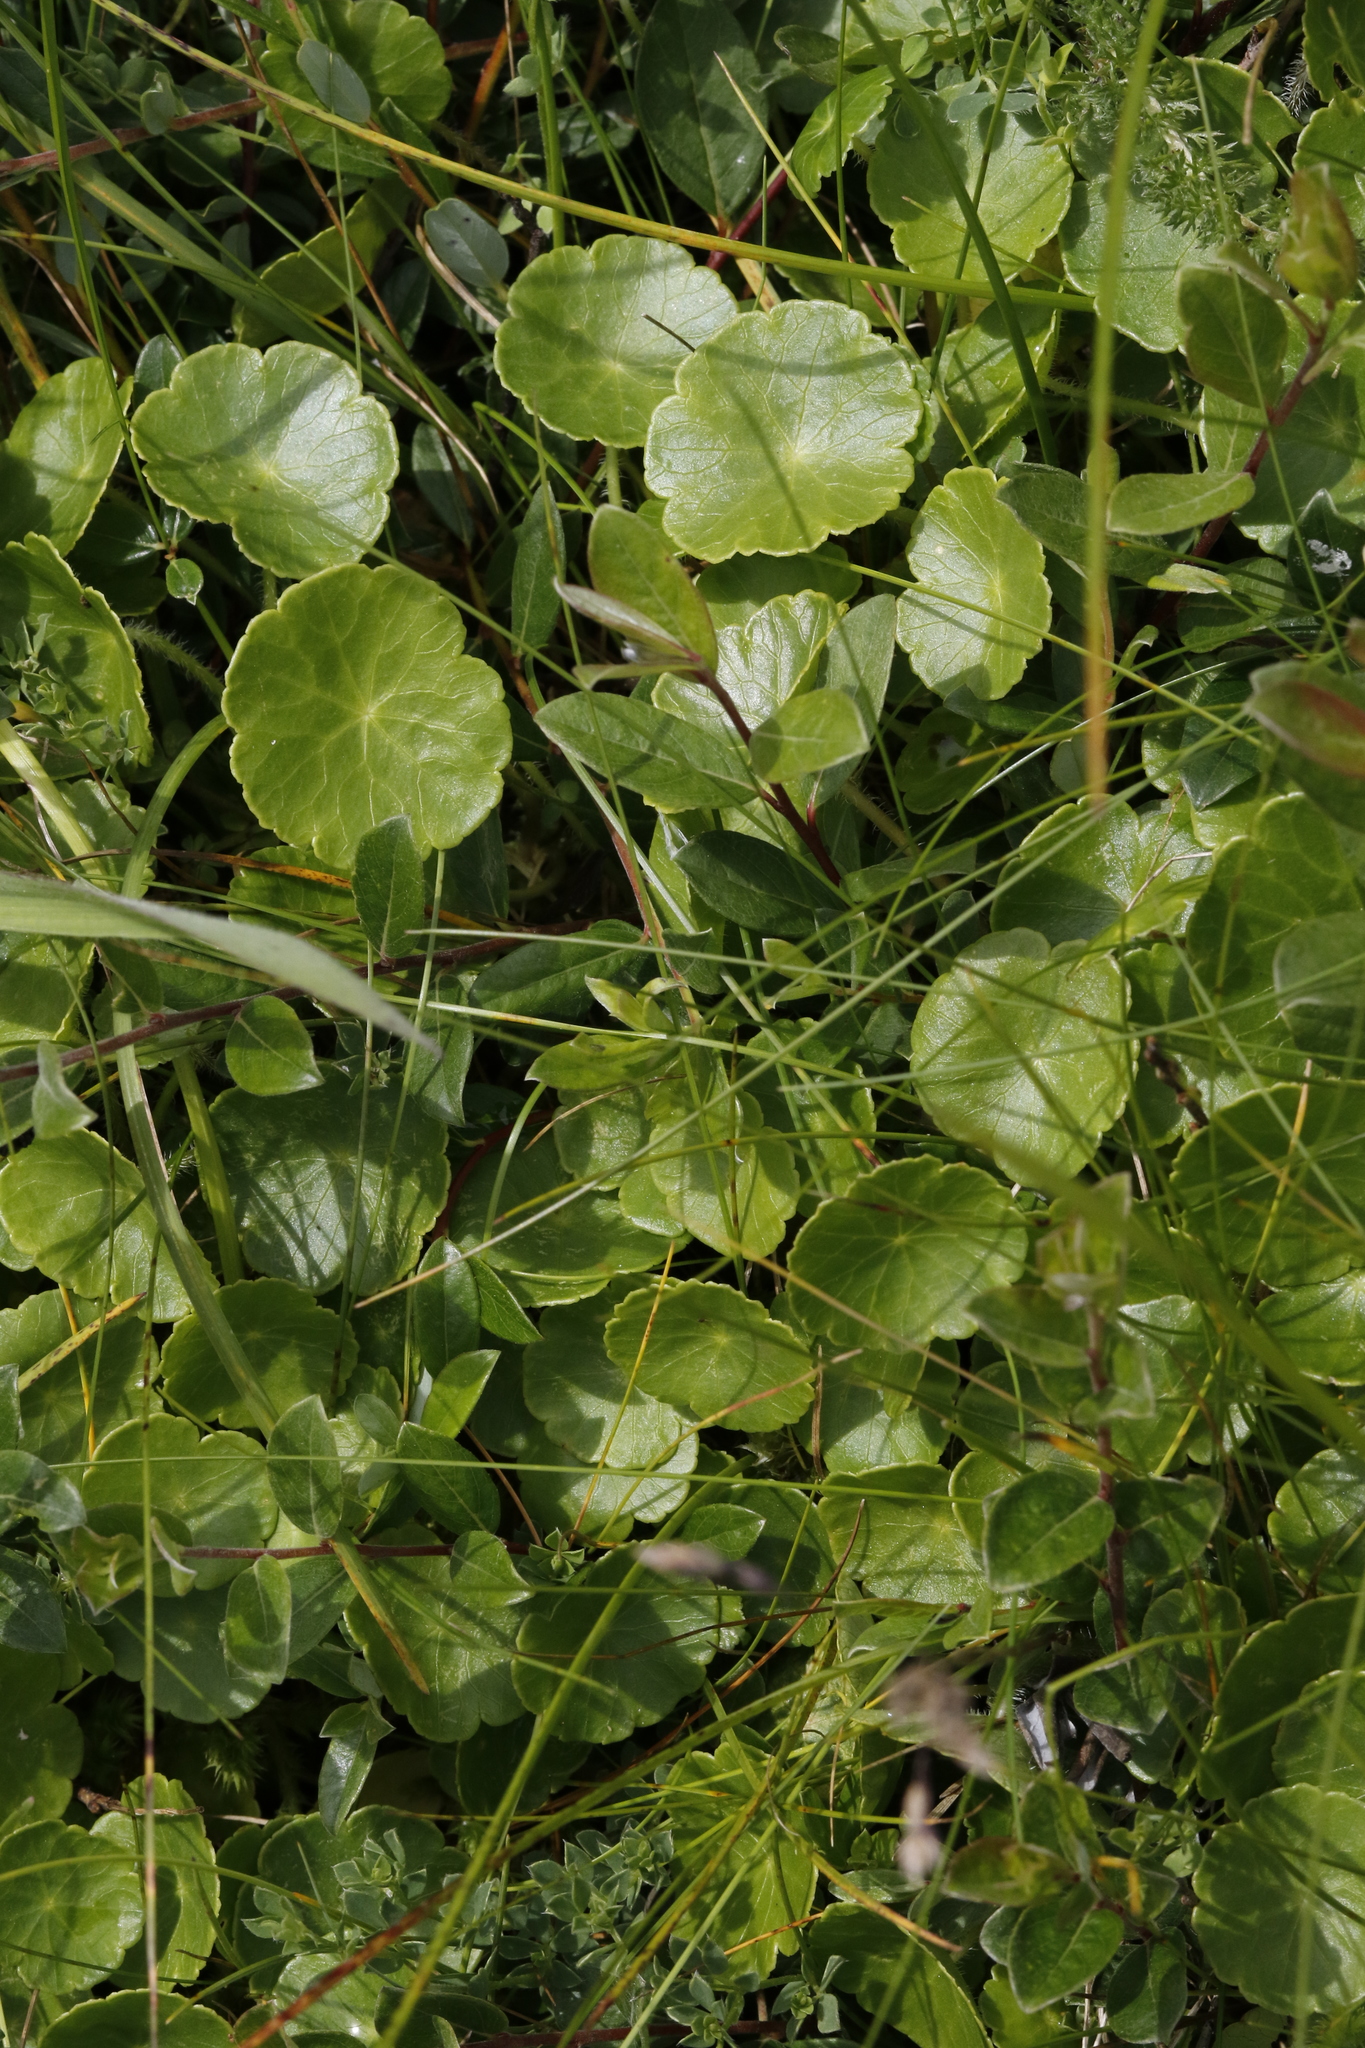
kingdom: Plantae
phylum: Tracheophyta
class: Magnoliopsida
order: Apiales
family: Araliaceae
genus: Hydrocotyle
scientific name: Hydrocotyle vulgaris
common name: Marsh pennywort
